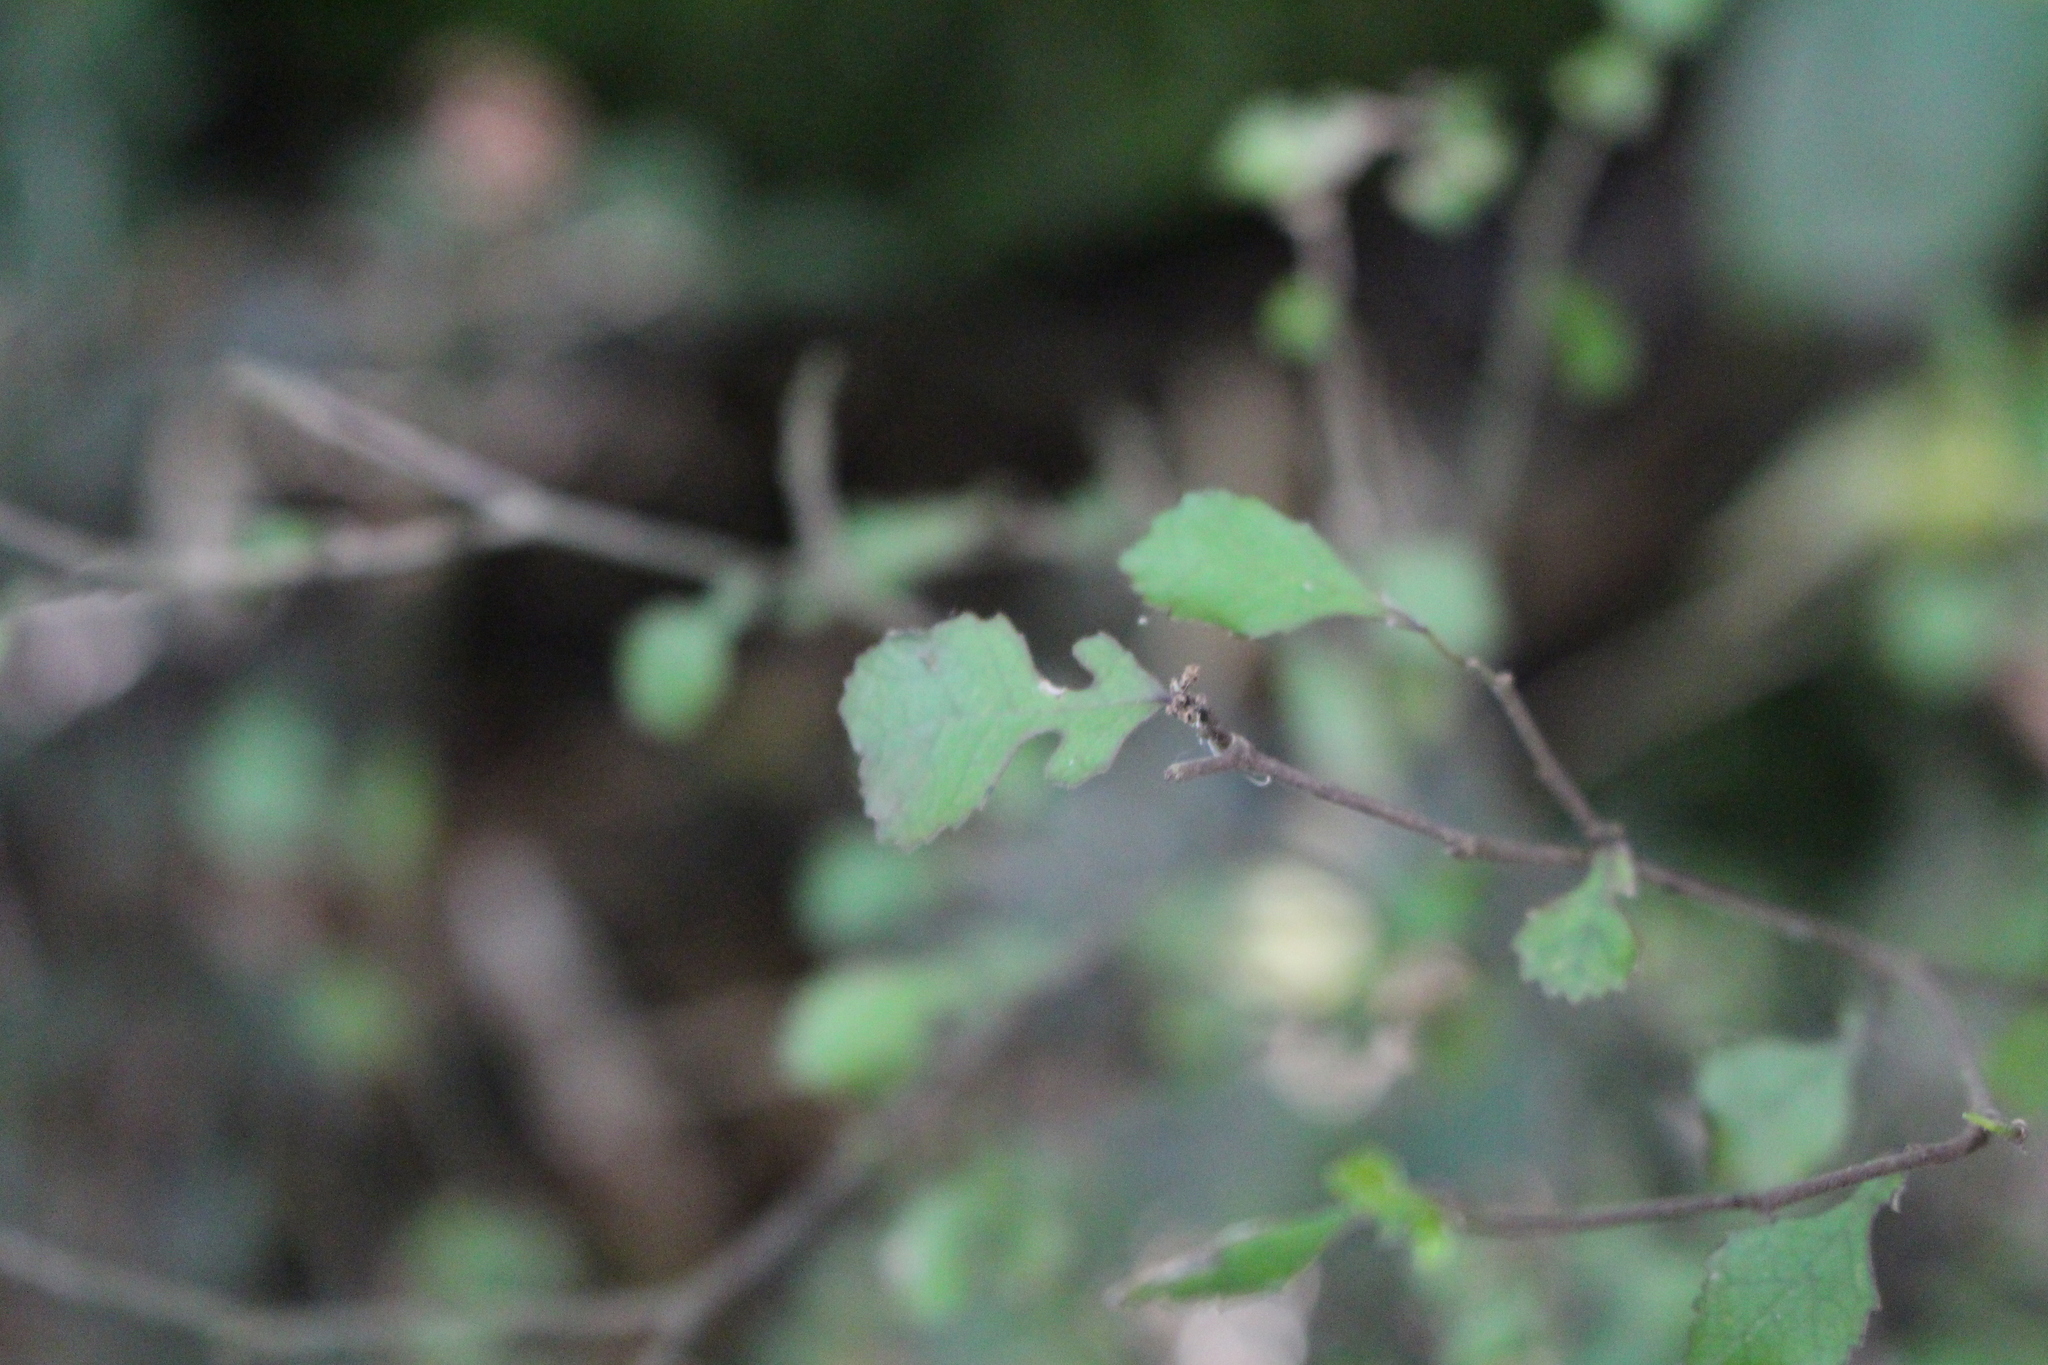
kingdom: Plantae
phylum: Tracheophyta
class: Magnoliopsida
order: Rosales
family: Moraceae
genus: Paratrophis
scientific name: Paratrophis microphylla
